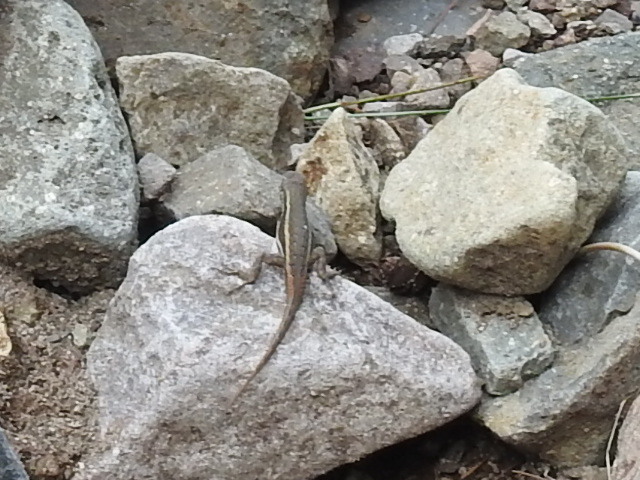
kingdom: Animalia
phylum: Chordata
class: Squamata
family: Phrynosomatidae
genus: Sceloporus
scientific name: Sceloporus virgatus
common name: Striped plateau lizard
